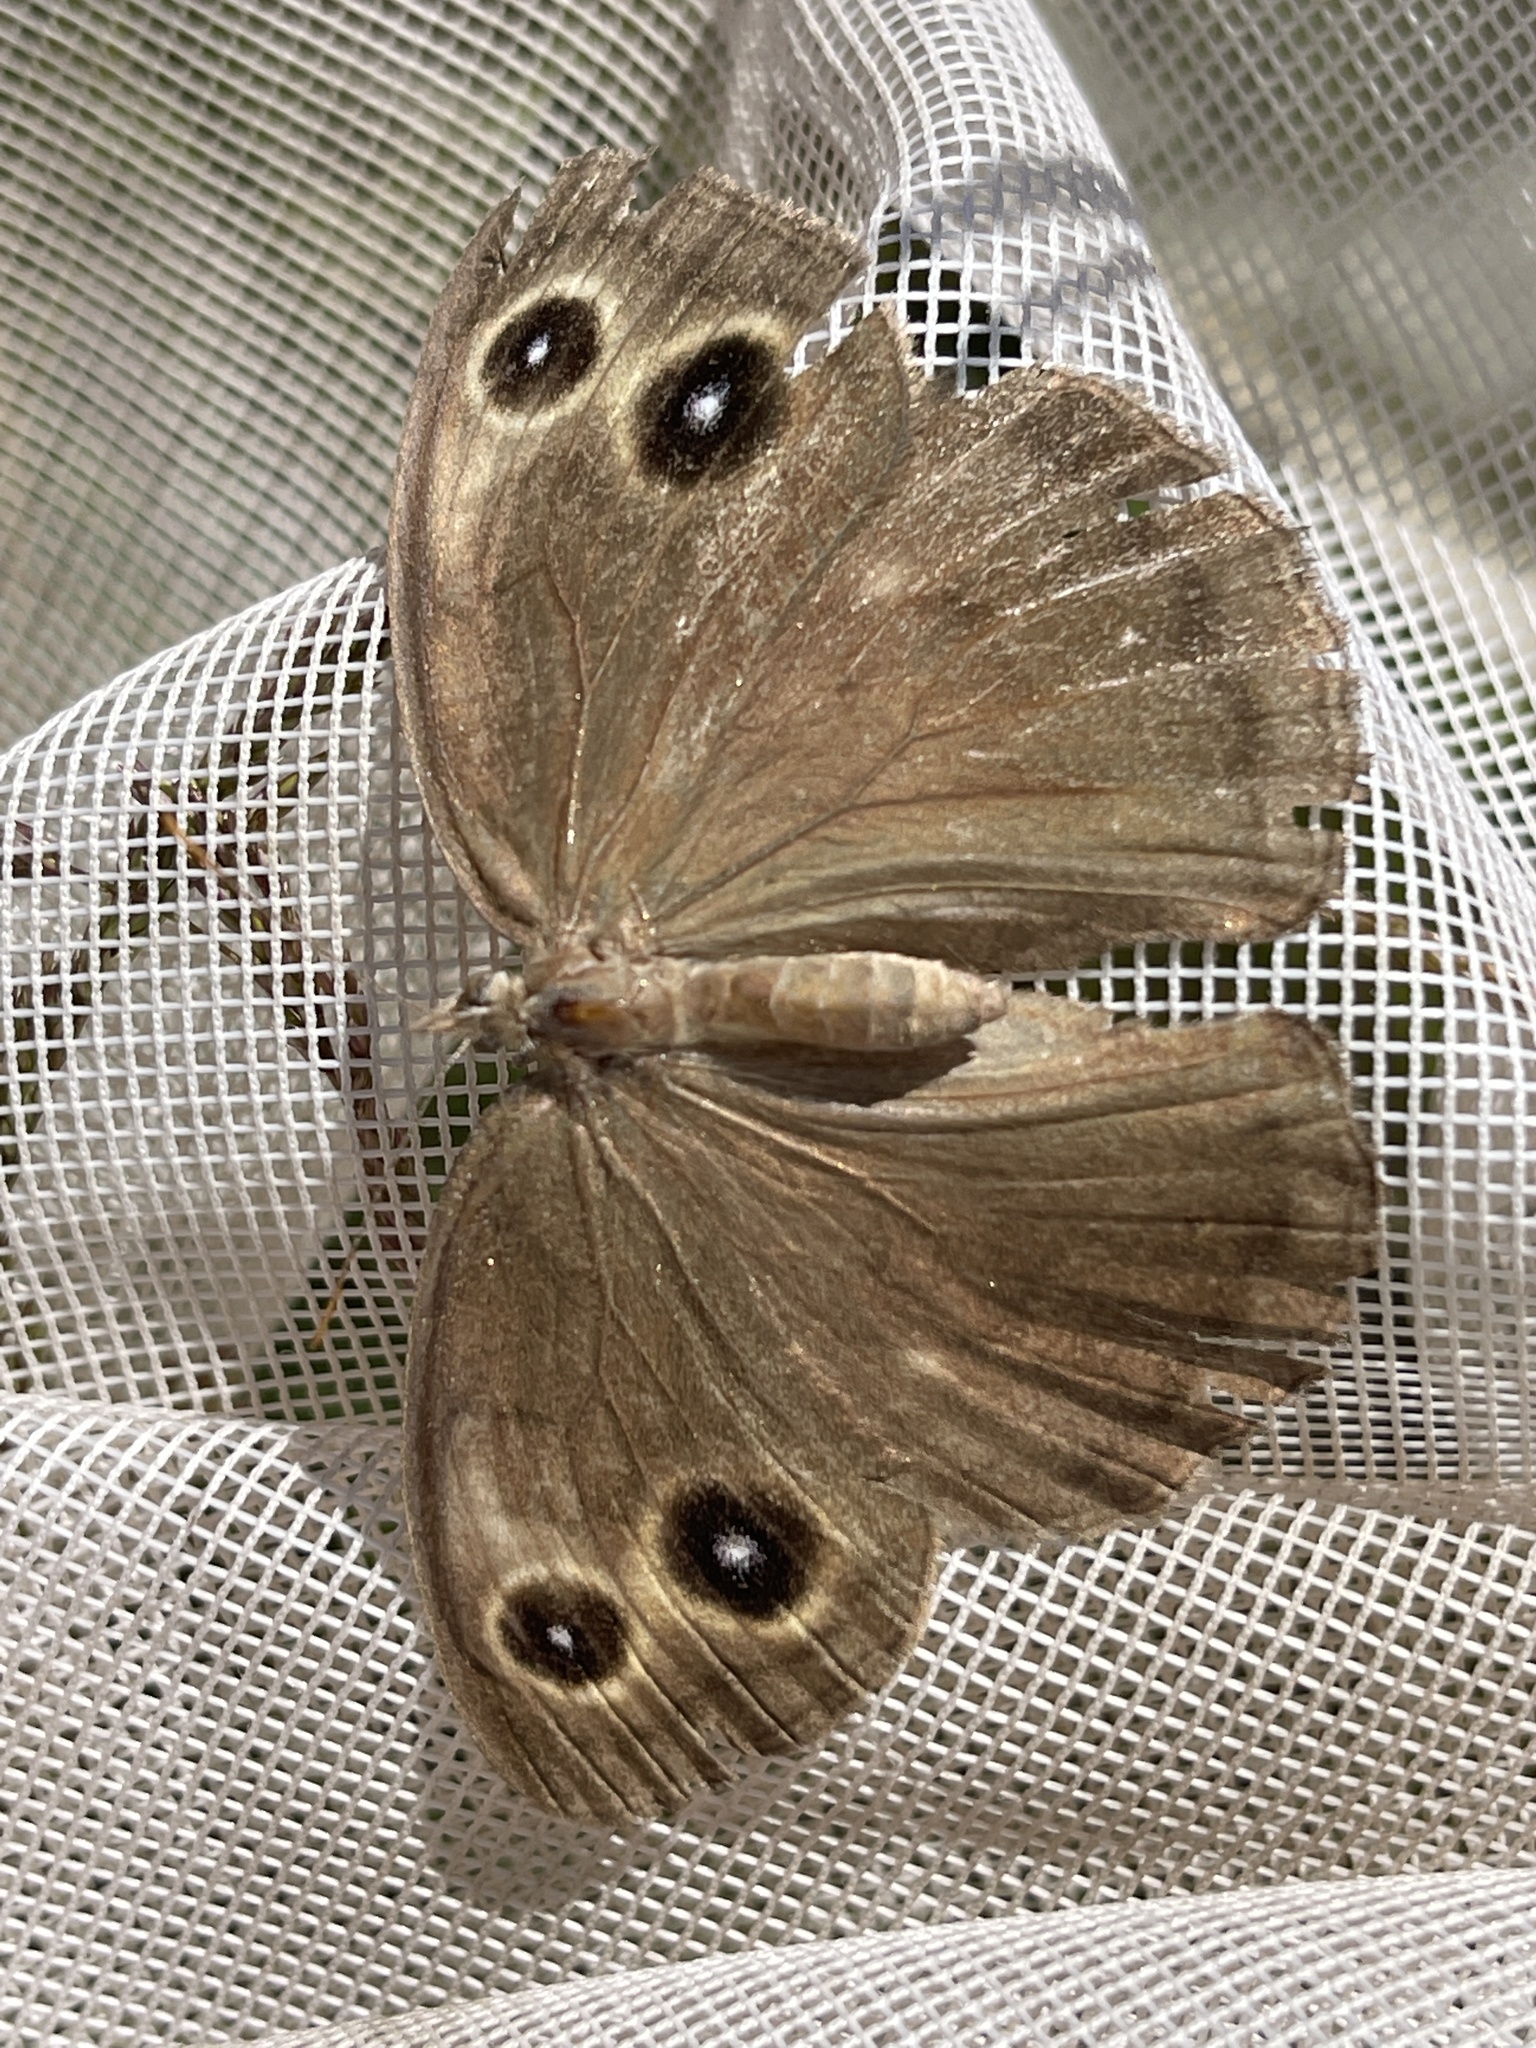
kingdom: Animalia
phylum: Arthropoda
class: Insecta
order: Lepidoptera
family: Nymphalidae
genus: Cercyonis
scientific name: Cercyonis pegala
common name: Common wood-nymph
